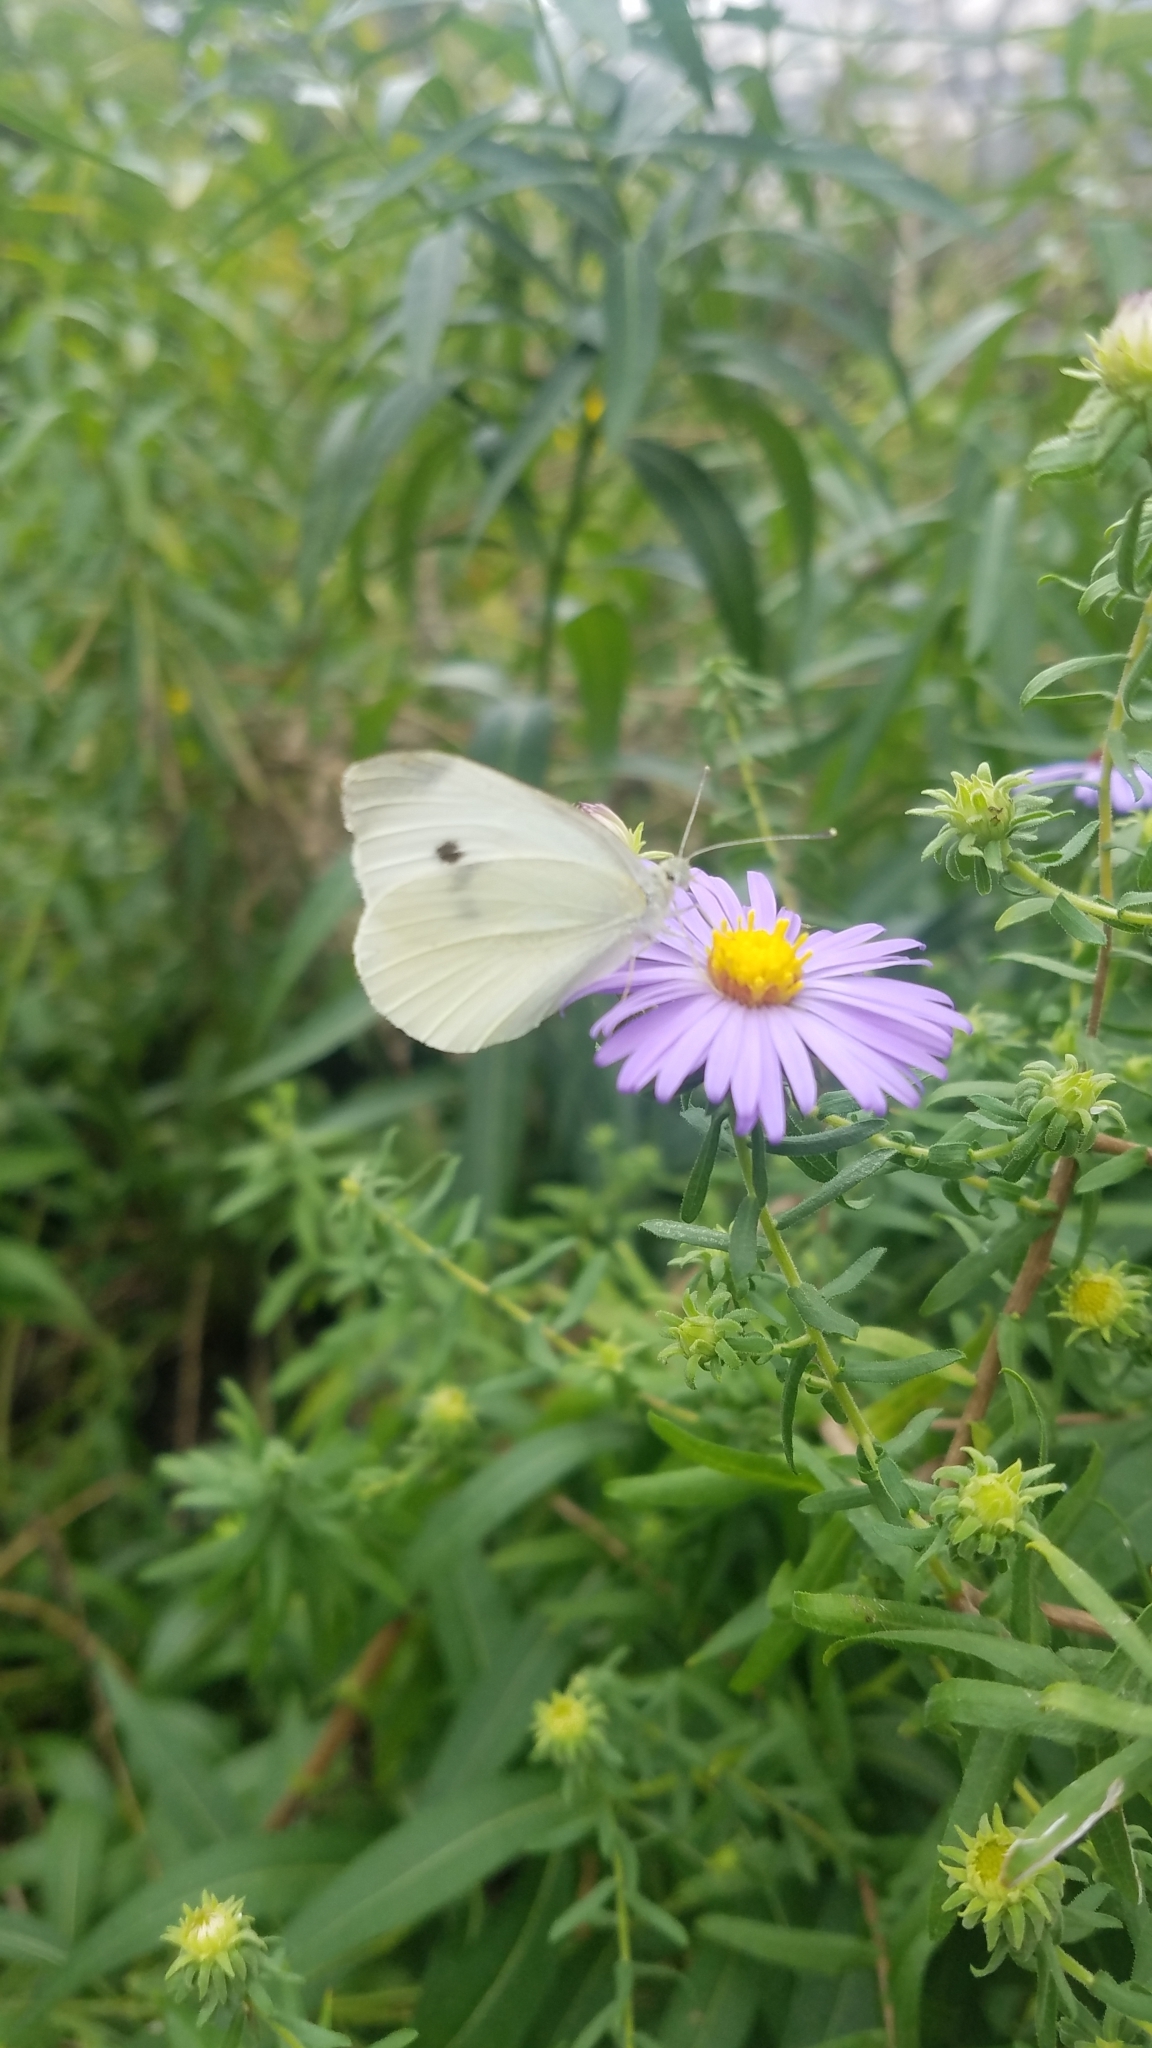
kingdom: Animalia
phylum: Arthropoda
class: Insecta
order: Lepidoptera
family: Pieridae
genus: Pieris
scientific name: Pieris rapae
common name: Small white
